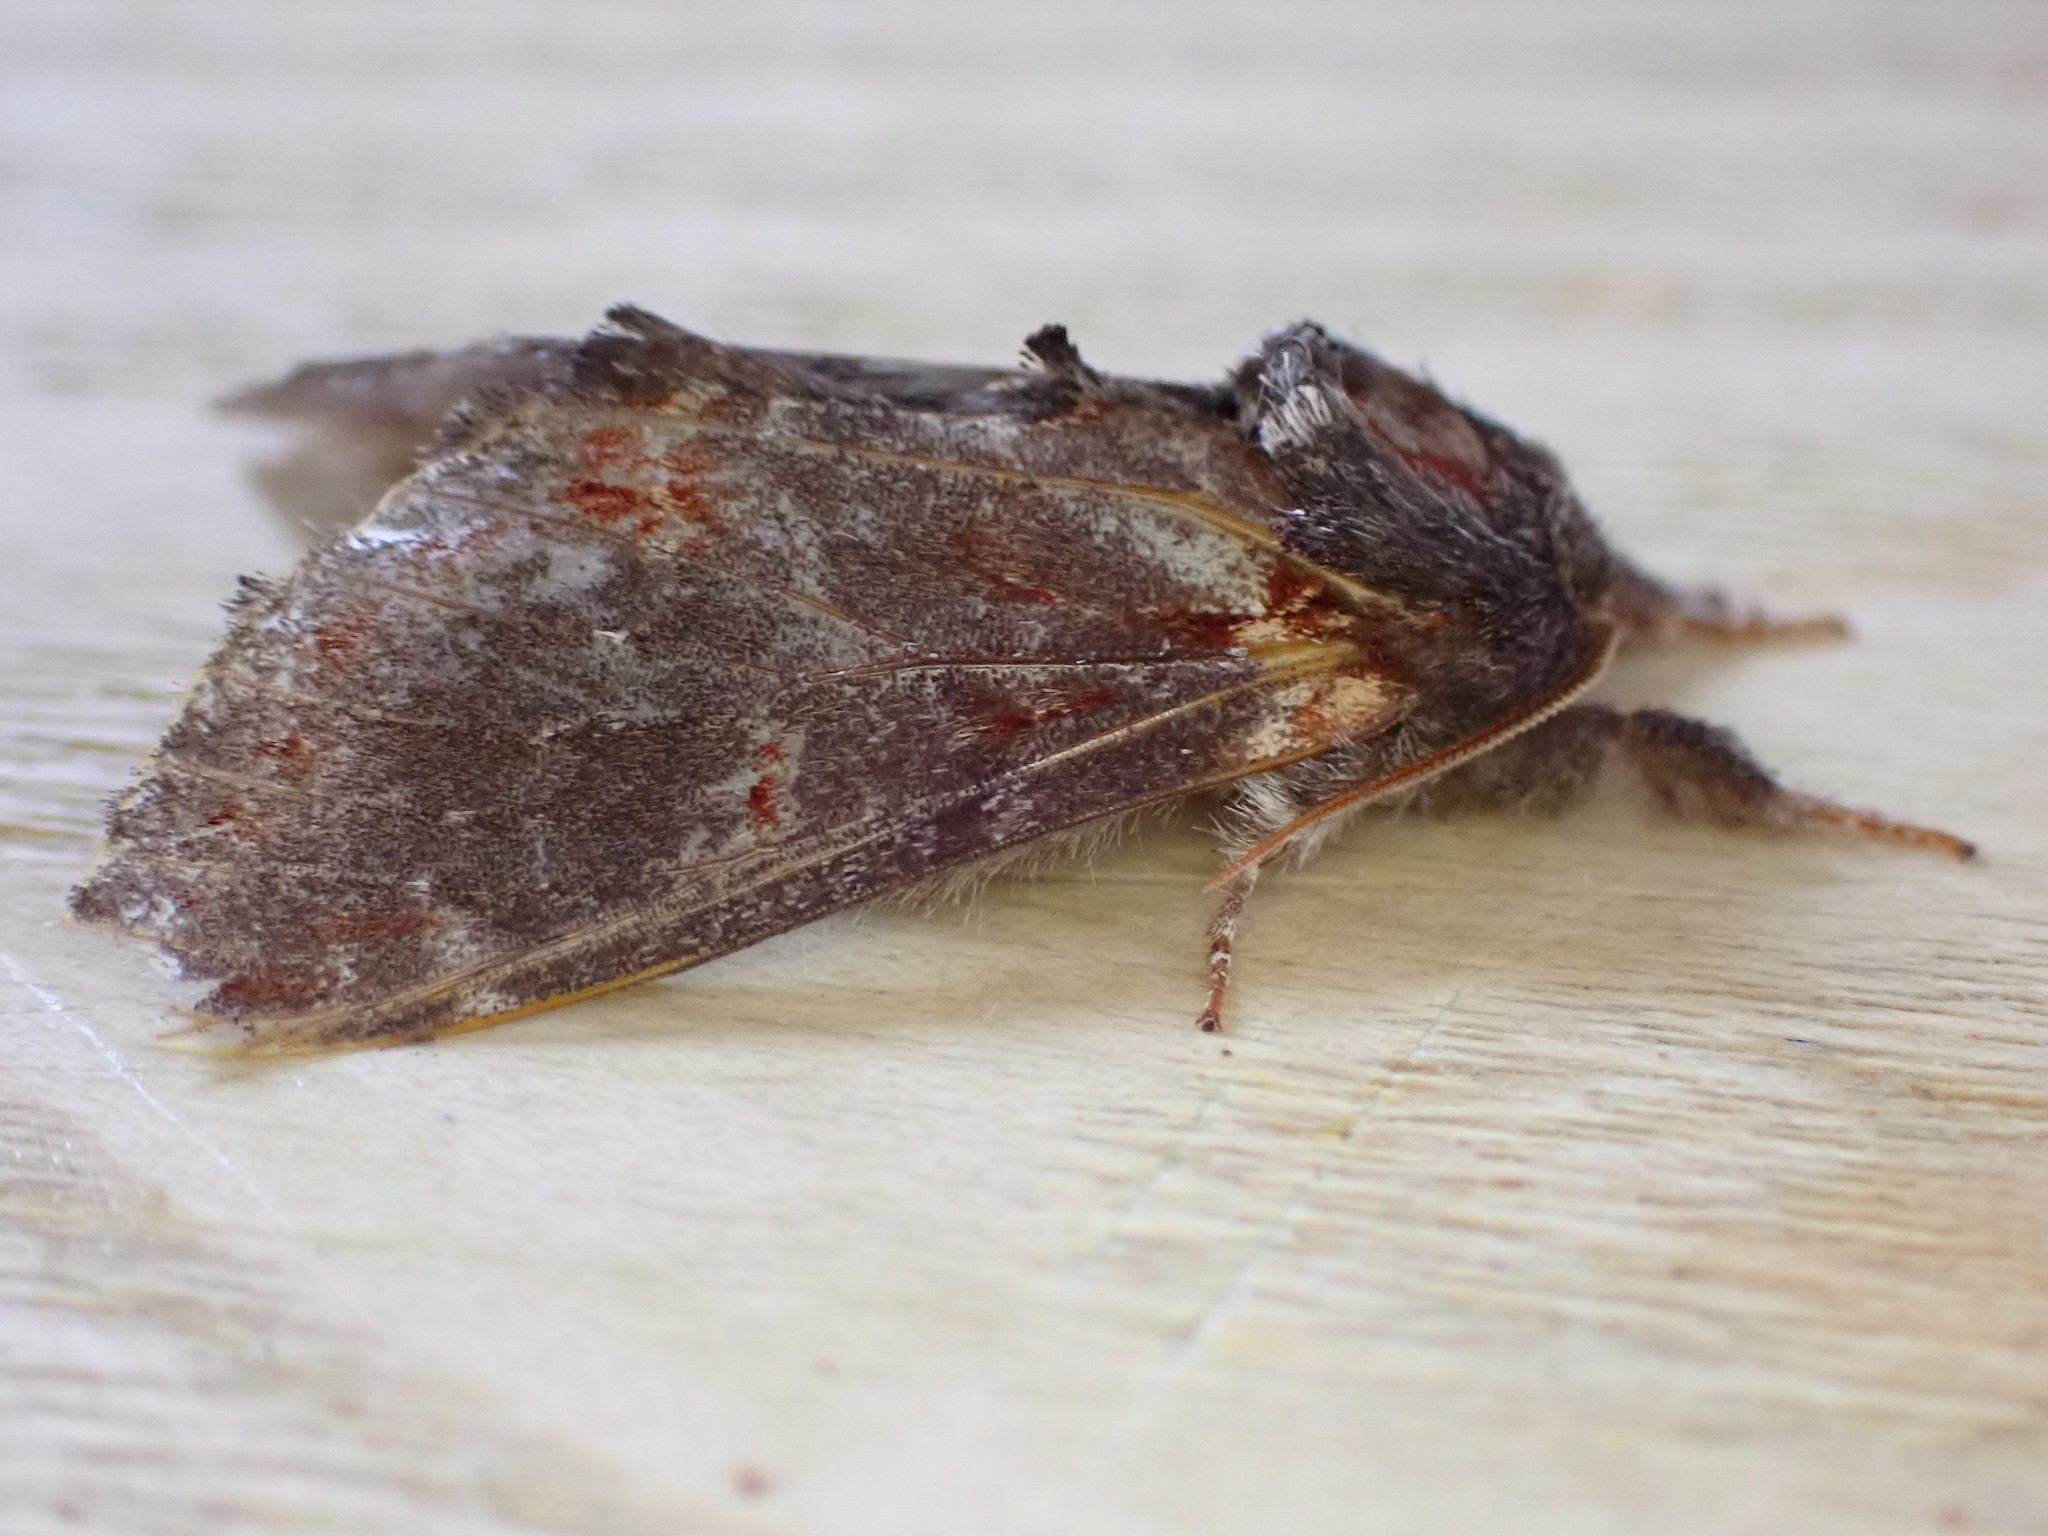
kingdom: Animalia
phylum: Arthropoda
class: Insecta
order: Lepidoptera
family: Notodontidae
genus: Notodonta
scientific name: Notodonta dromedarius
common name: Iron prominent
